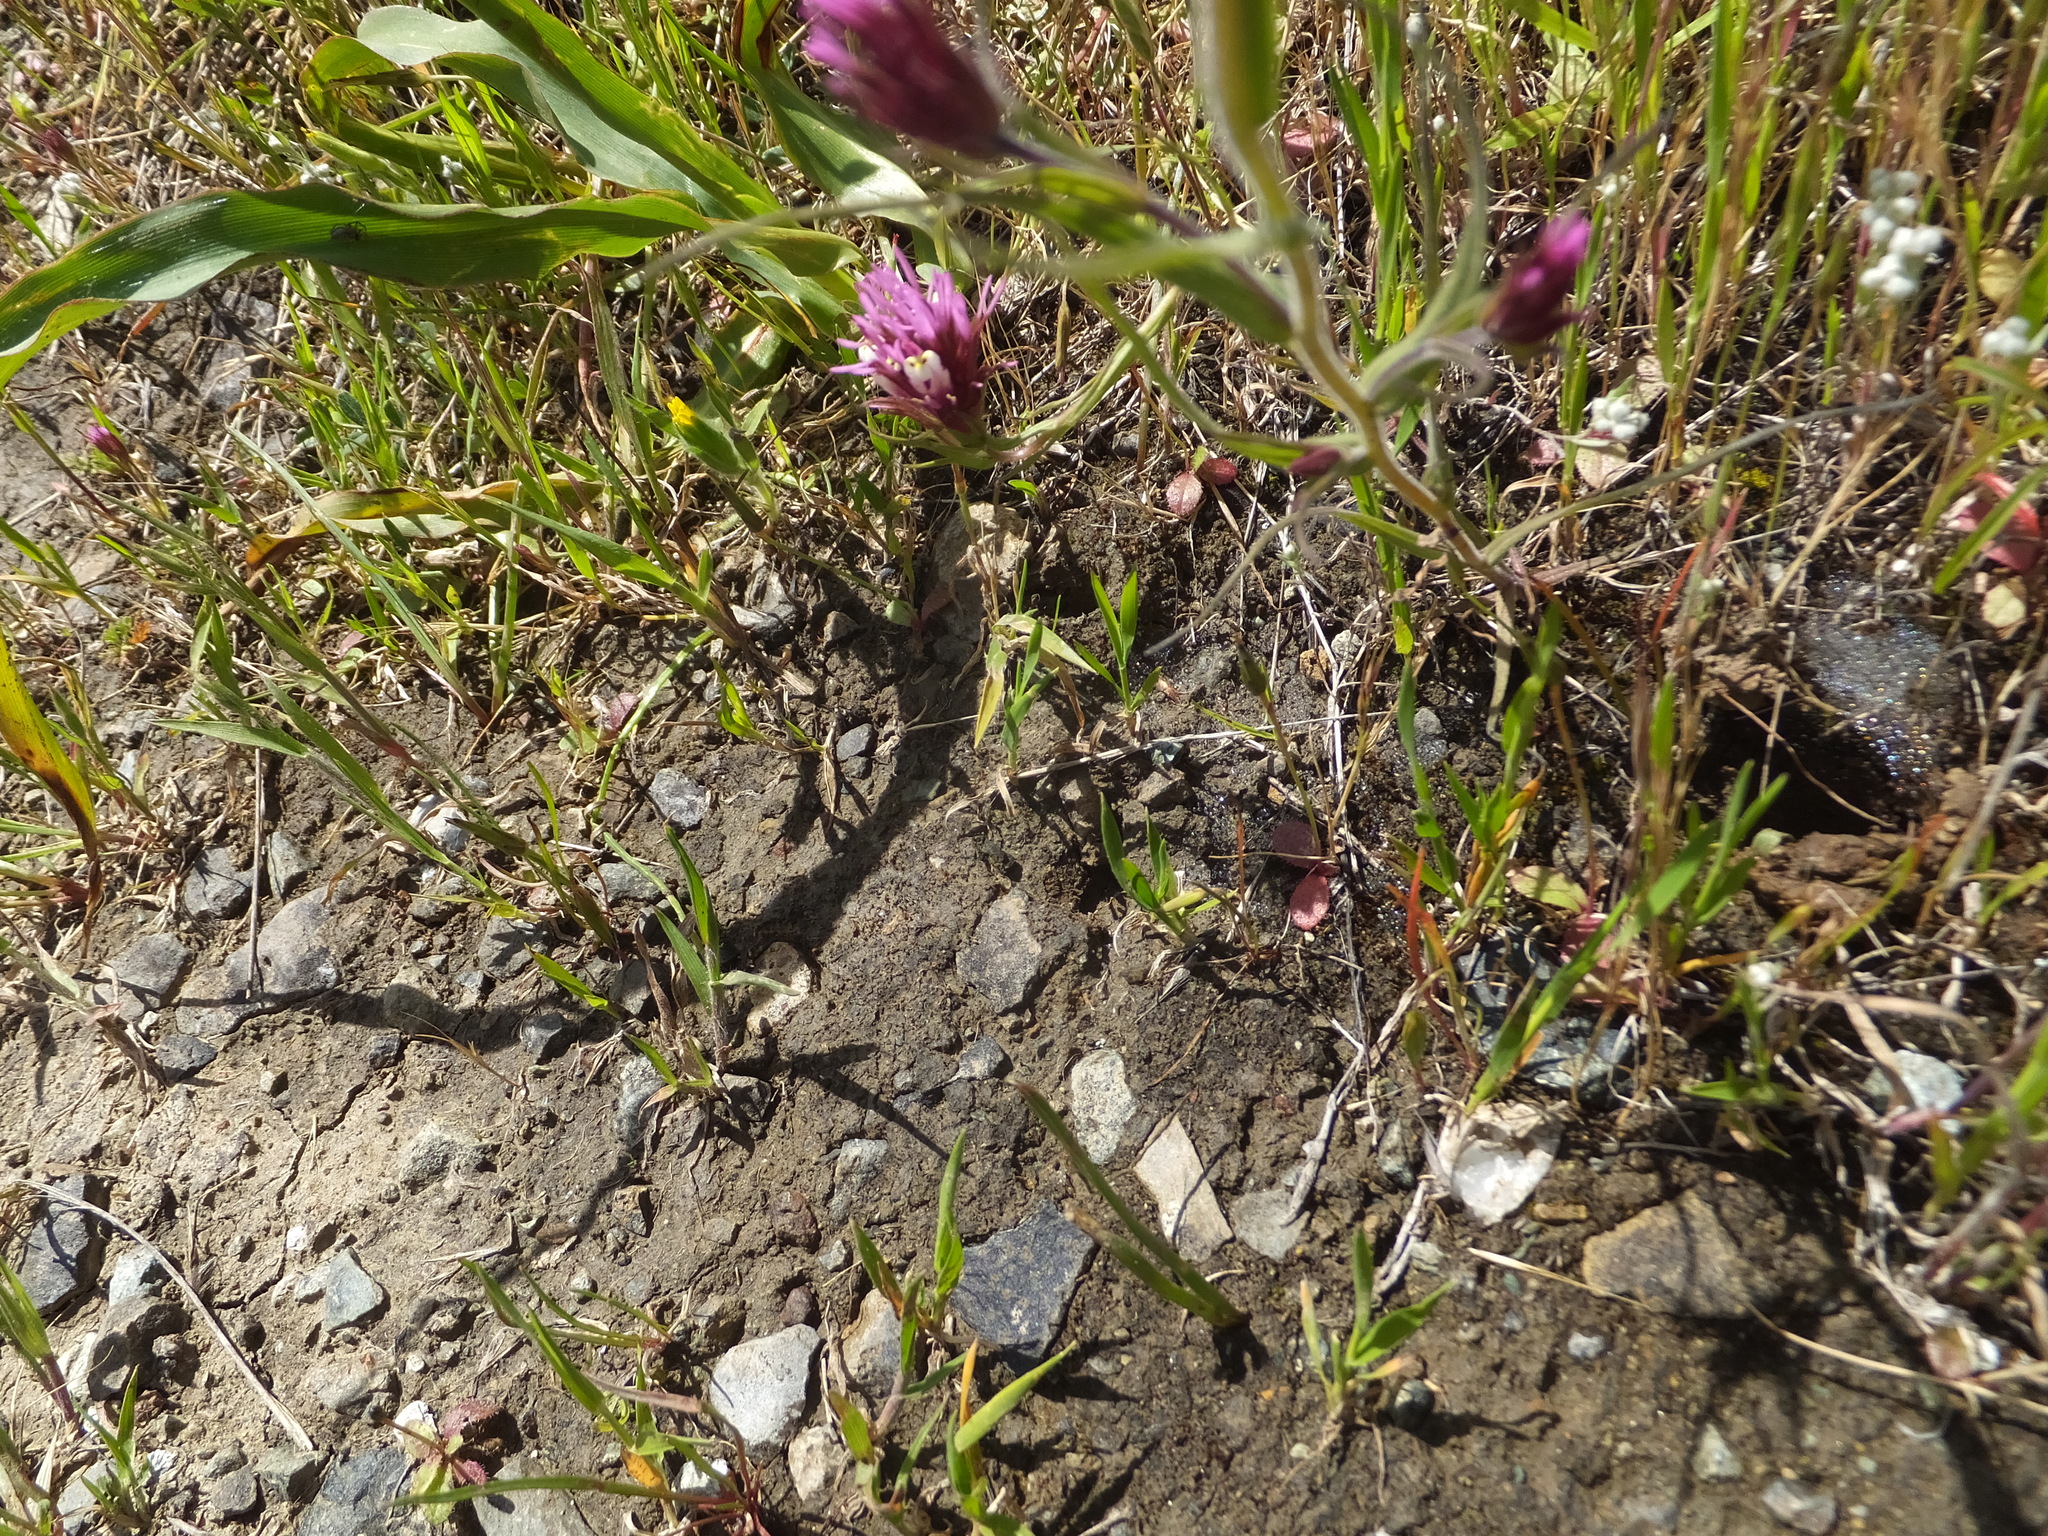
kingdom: Plantae
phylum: Tracheophyta
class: Magnoliopsida
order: Lamiales
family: Orobanchaceae
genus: Castilleja
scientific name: Castilleja densiflora
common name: Dense-flower indian paintbrush
